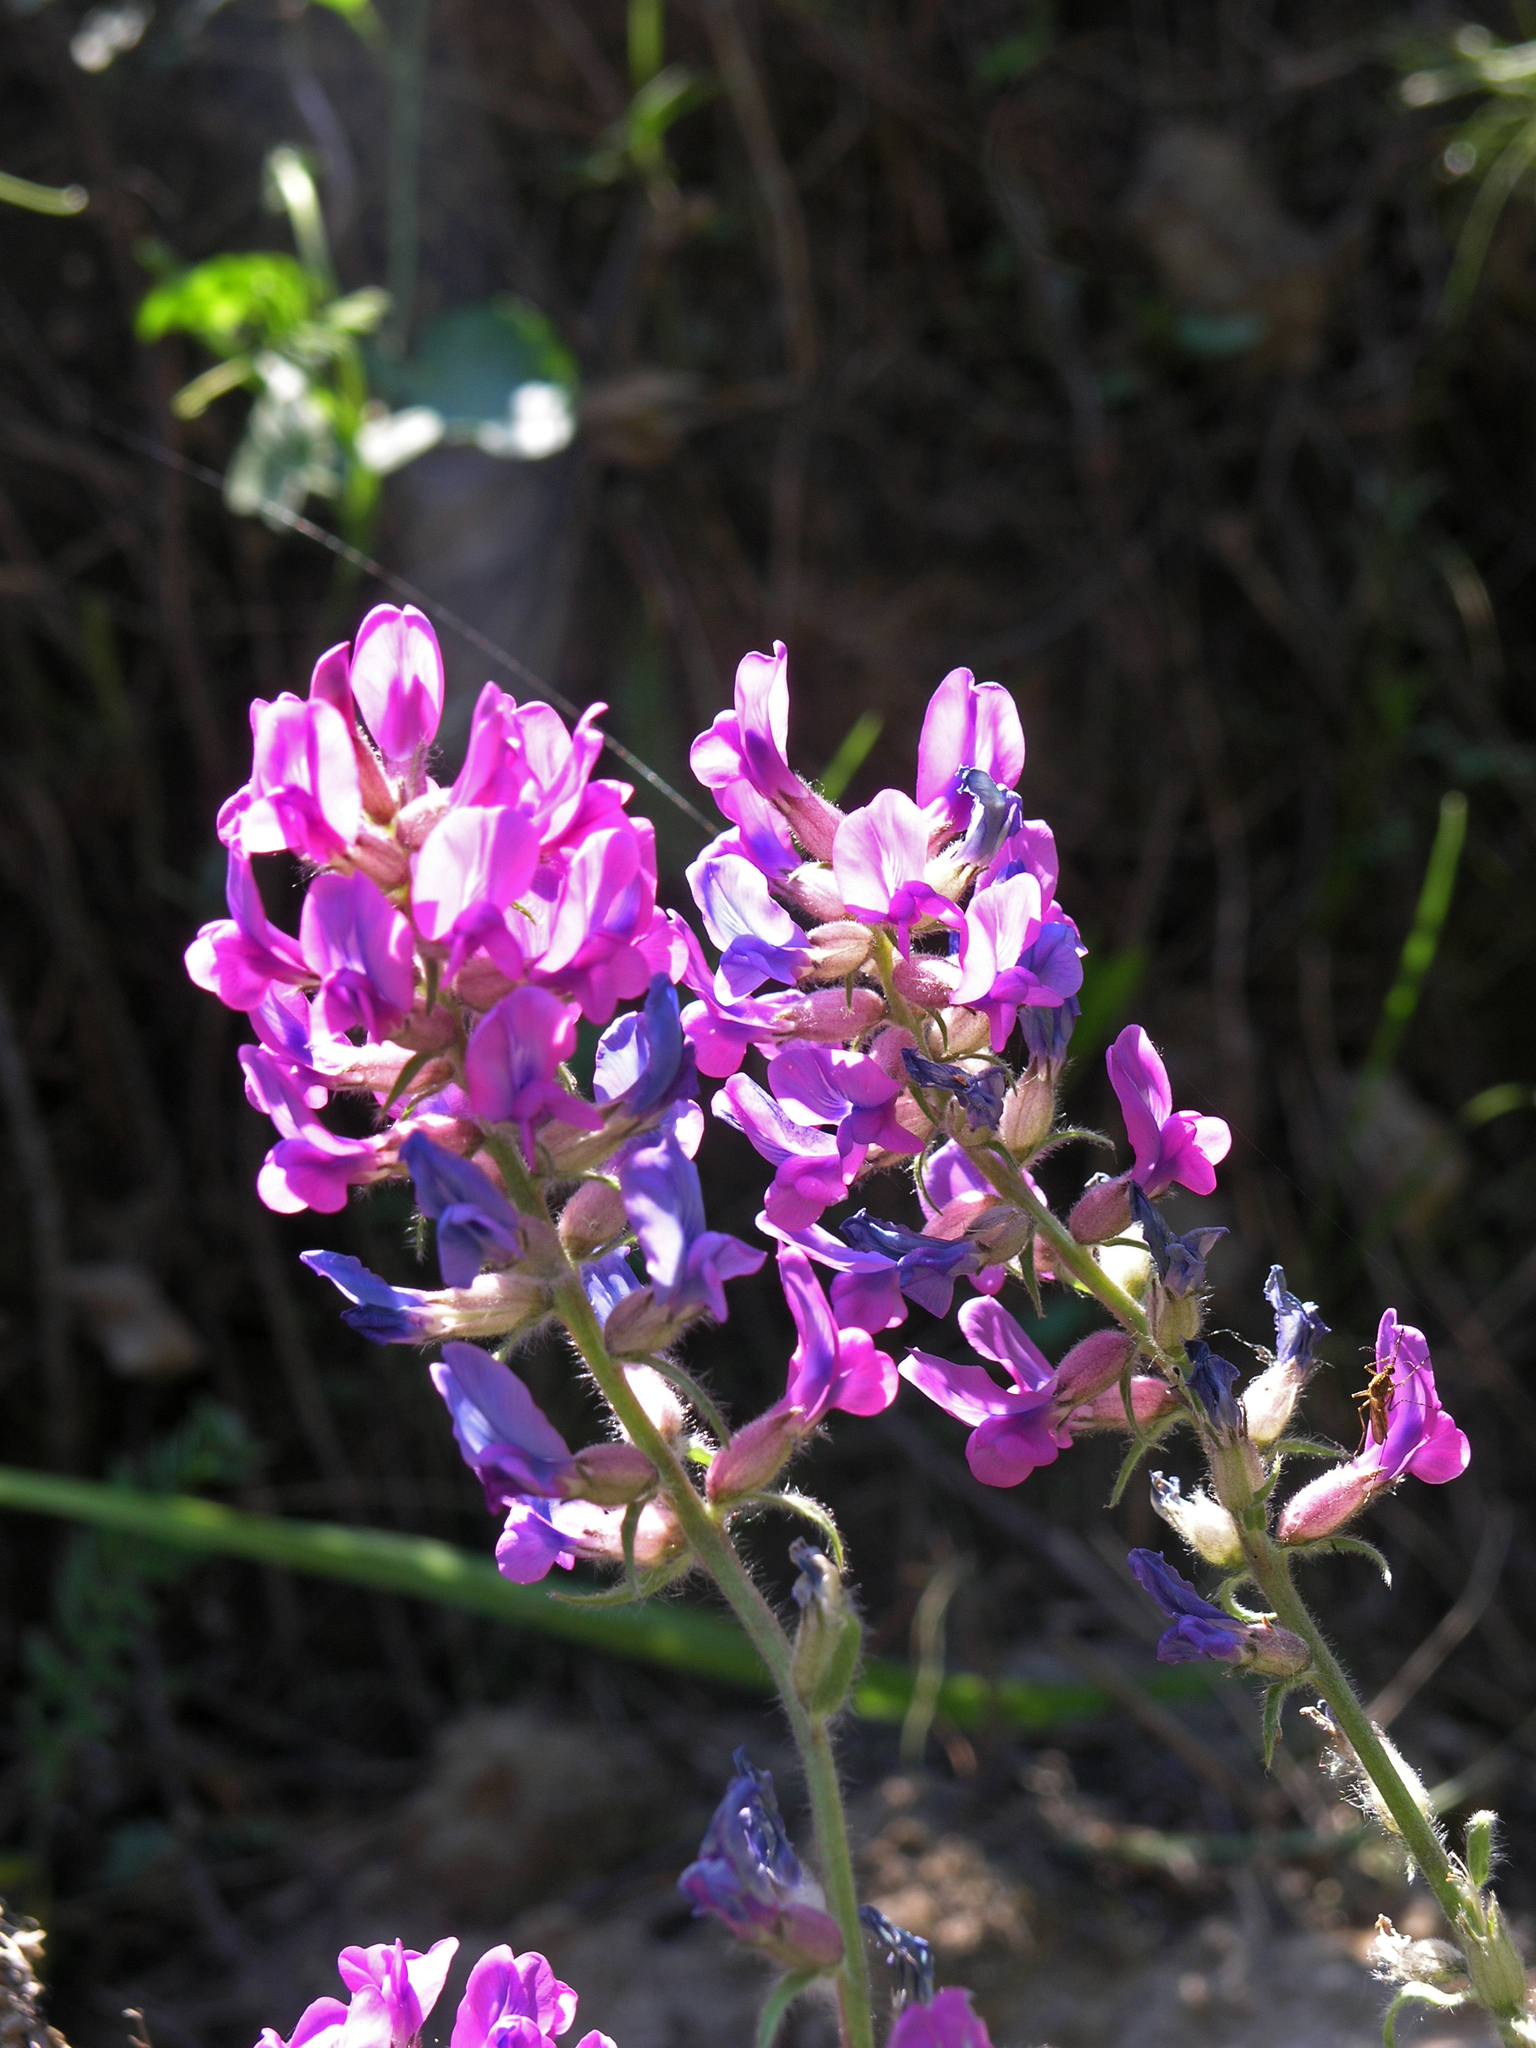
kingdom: Plantae
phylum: Tracheophyta
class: Magnoliopsida
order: Fabales
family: Fabaceae
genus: Oxytropis
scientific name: Oxytropis campanulata
